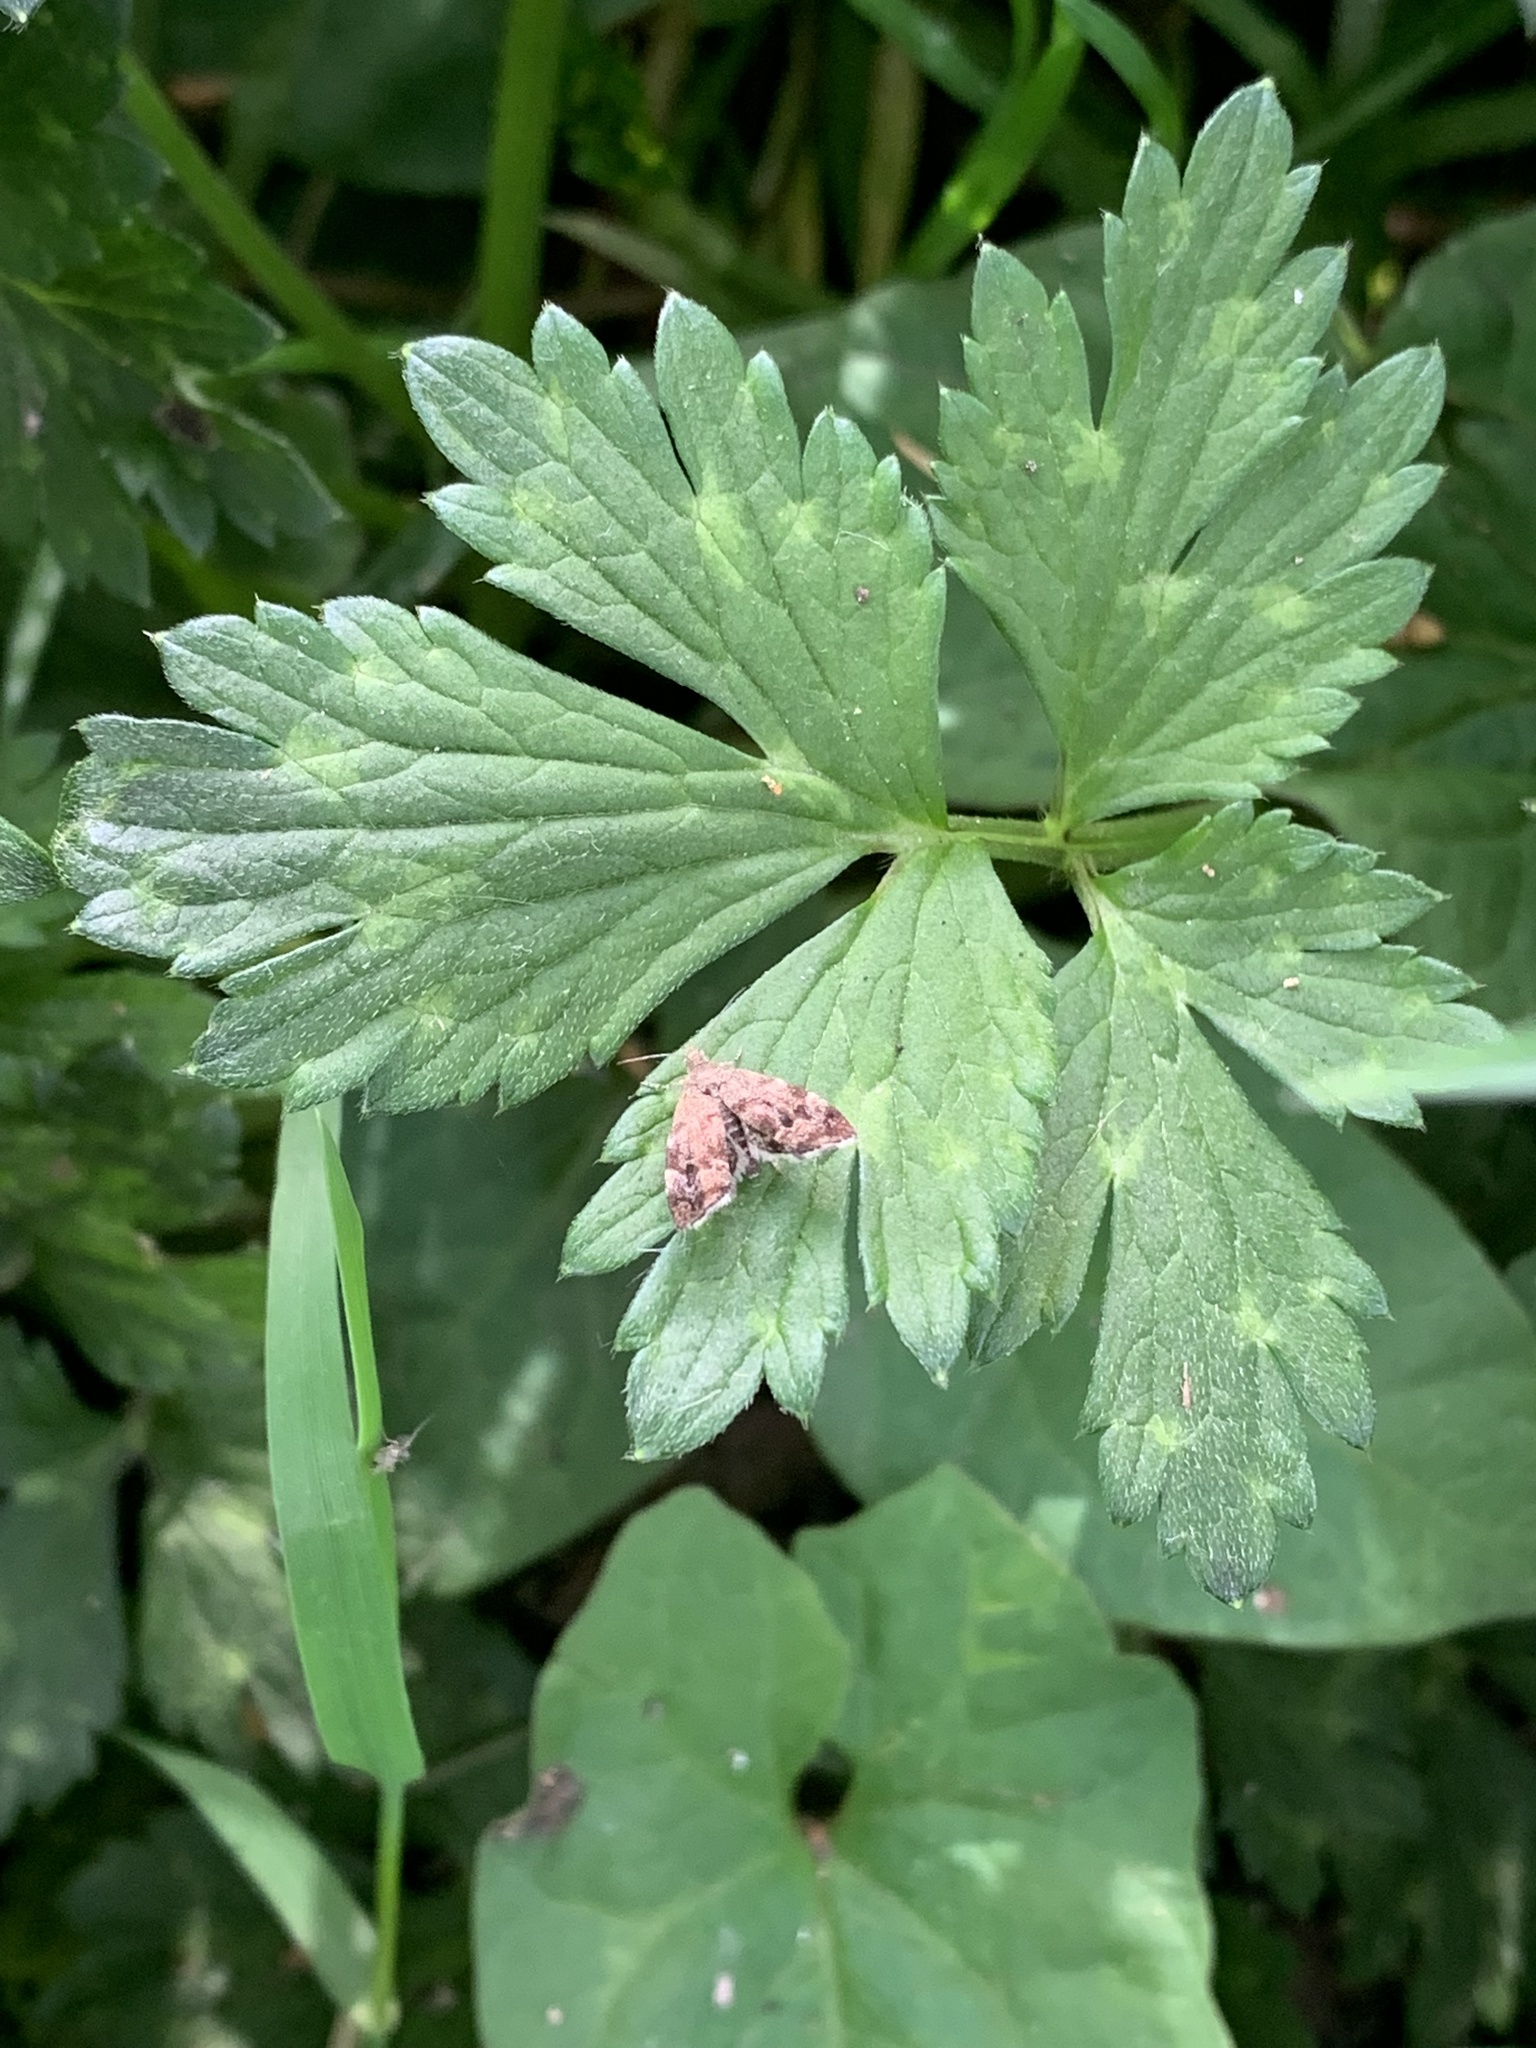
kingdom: Animalia
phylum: Arthropoda
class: Insecta
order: Lepidoptera
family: Choreutidae
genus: Anthophila
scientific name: Anthophila fabriciana
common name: Nettle-tap
